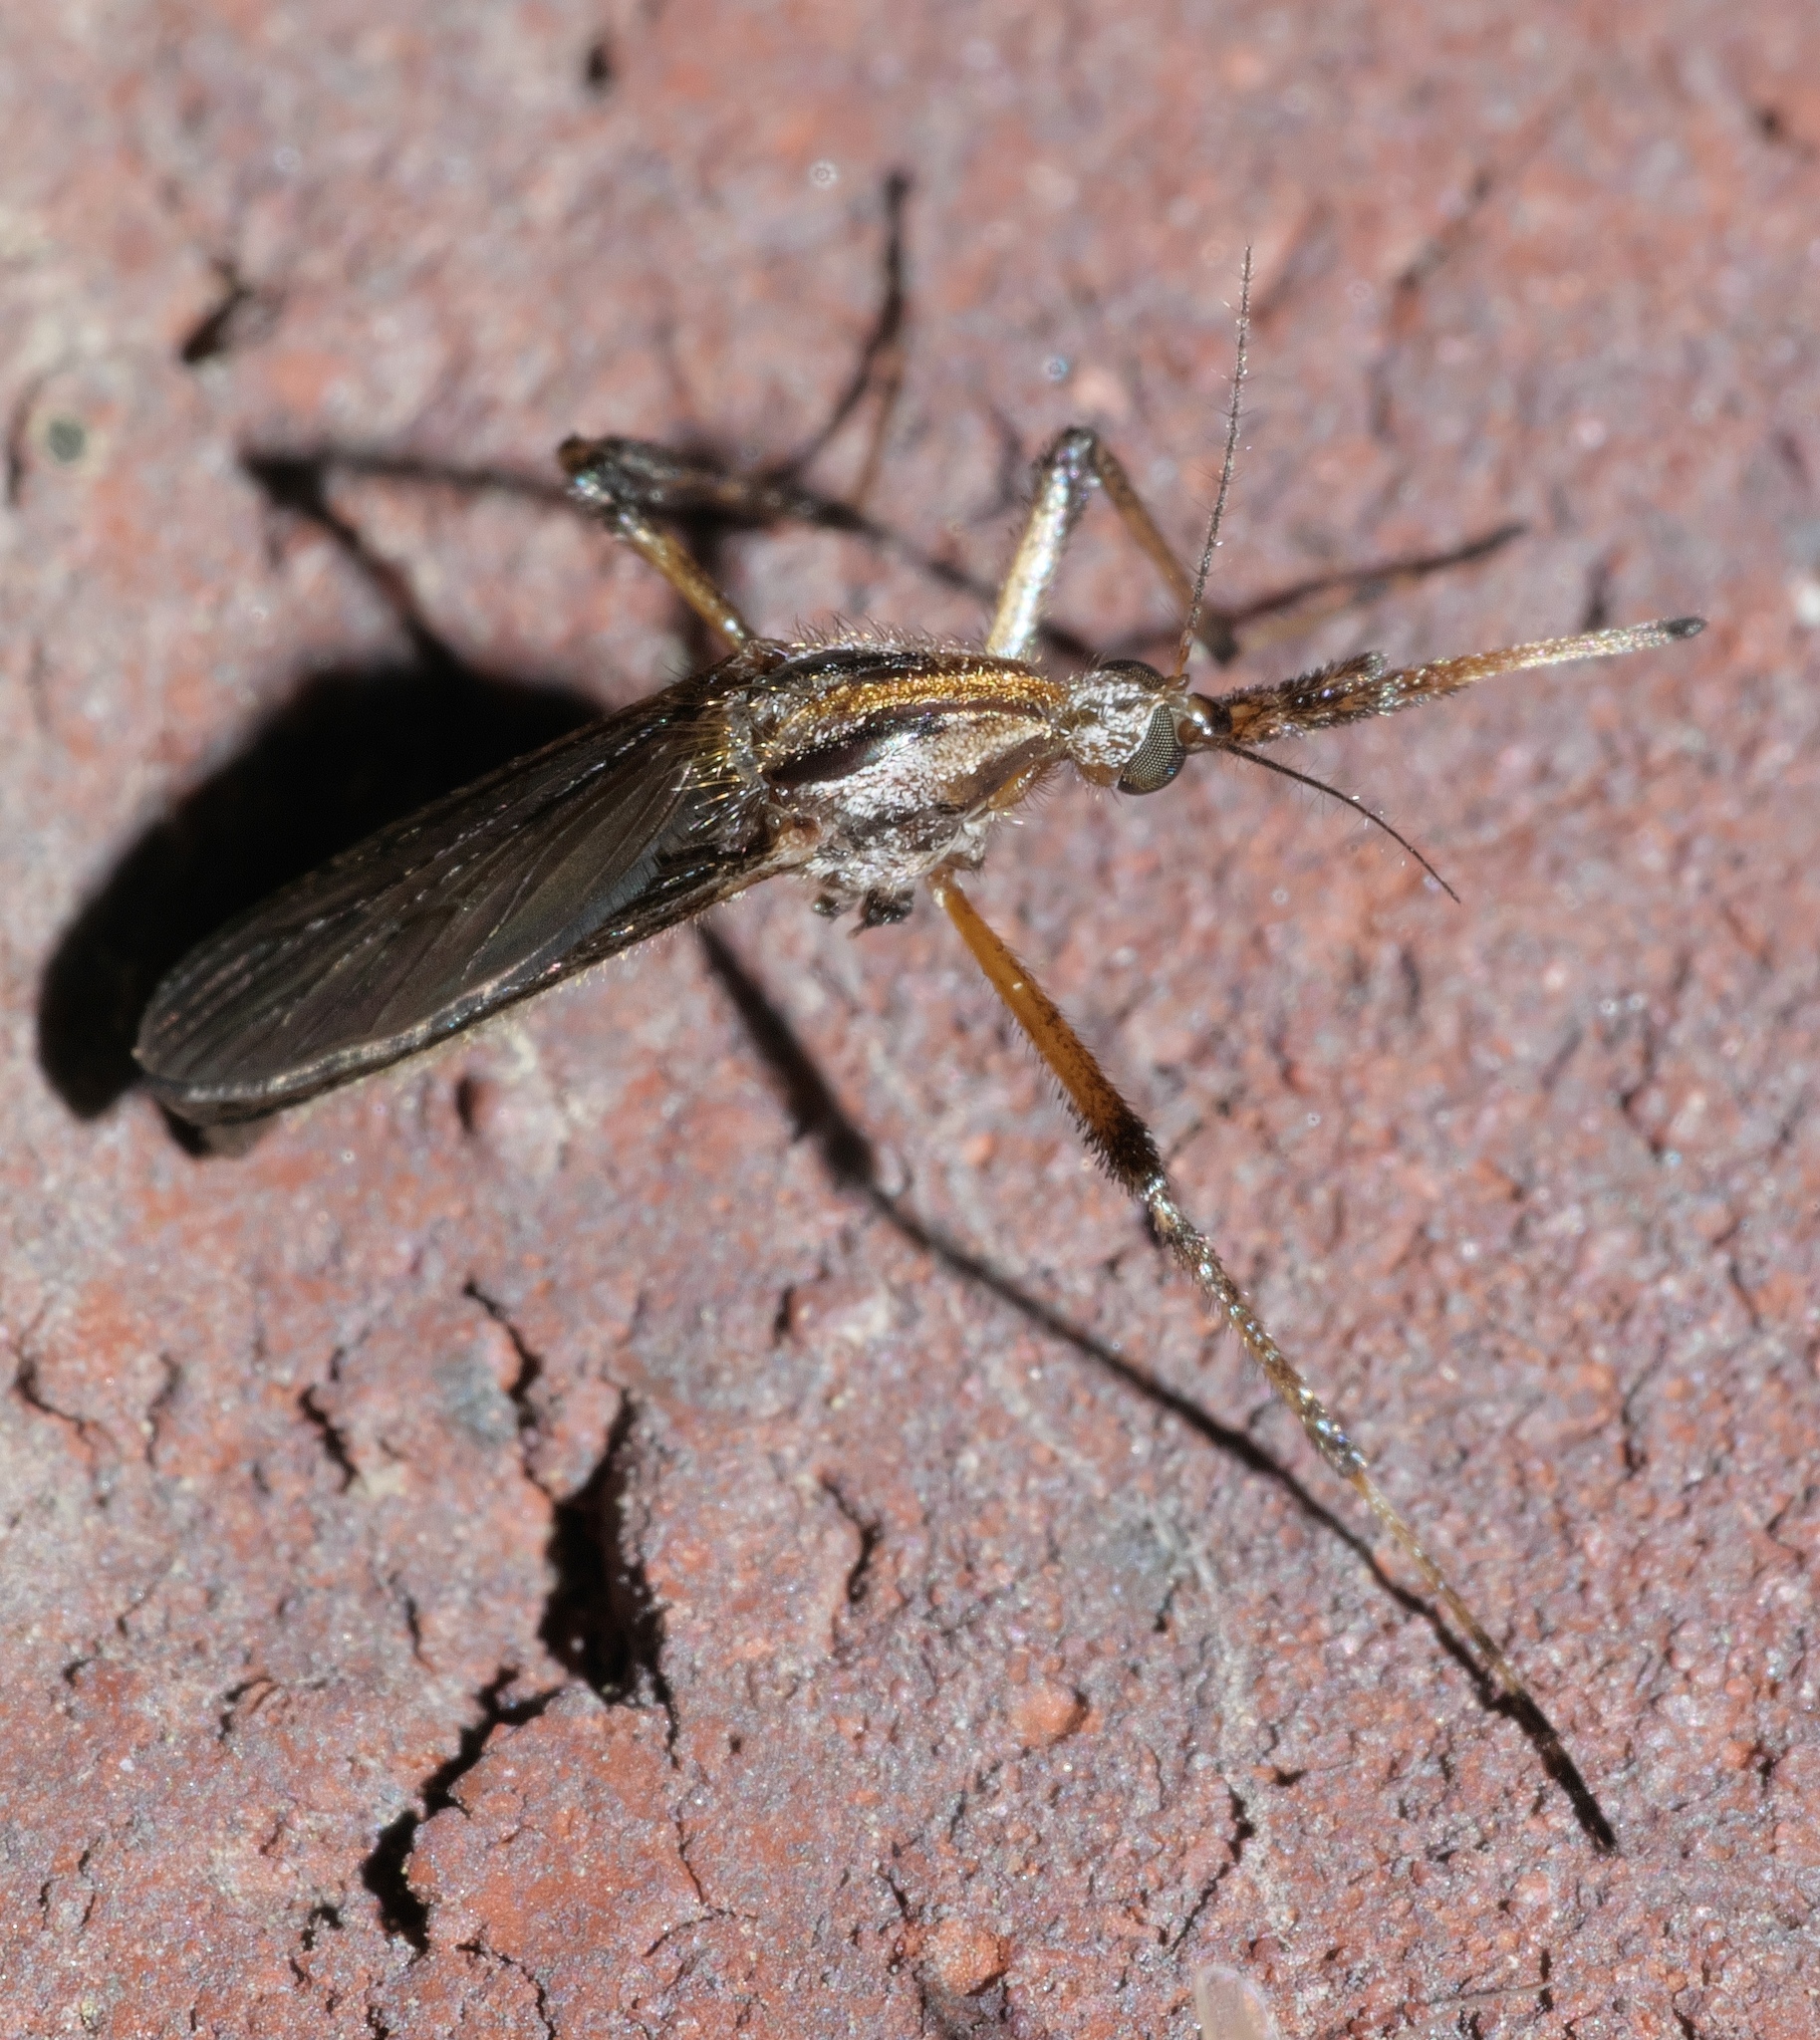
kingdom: Animalia
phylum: Arthropoda
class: Insecta
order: Diptera
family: Culicidae
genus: Psorophora
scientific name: Psorophora ciliata
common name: Gallinipper
